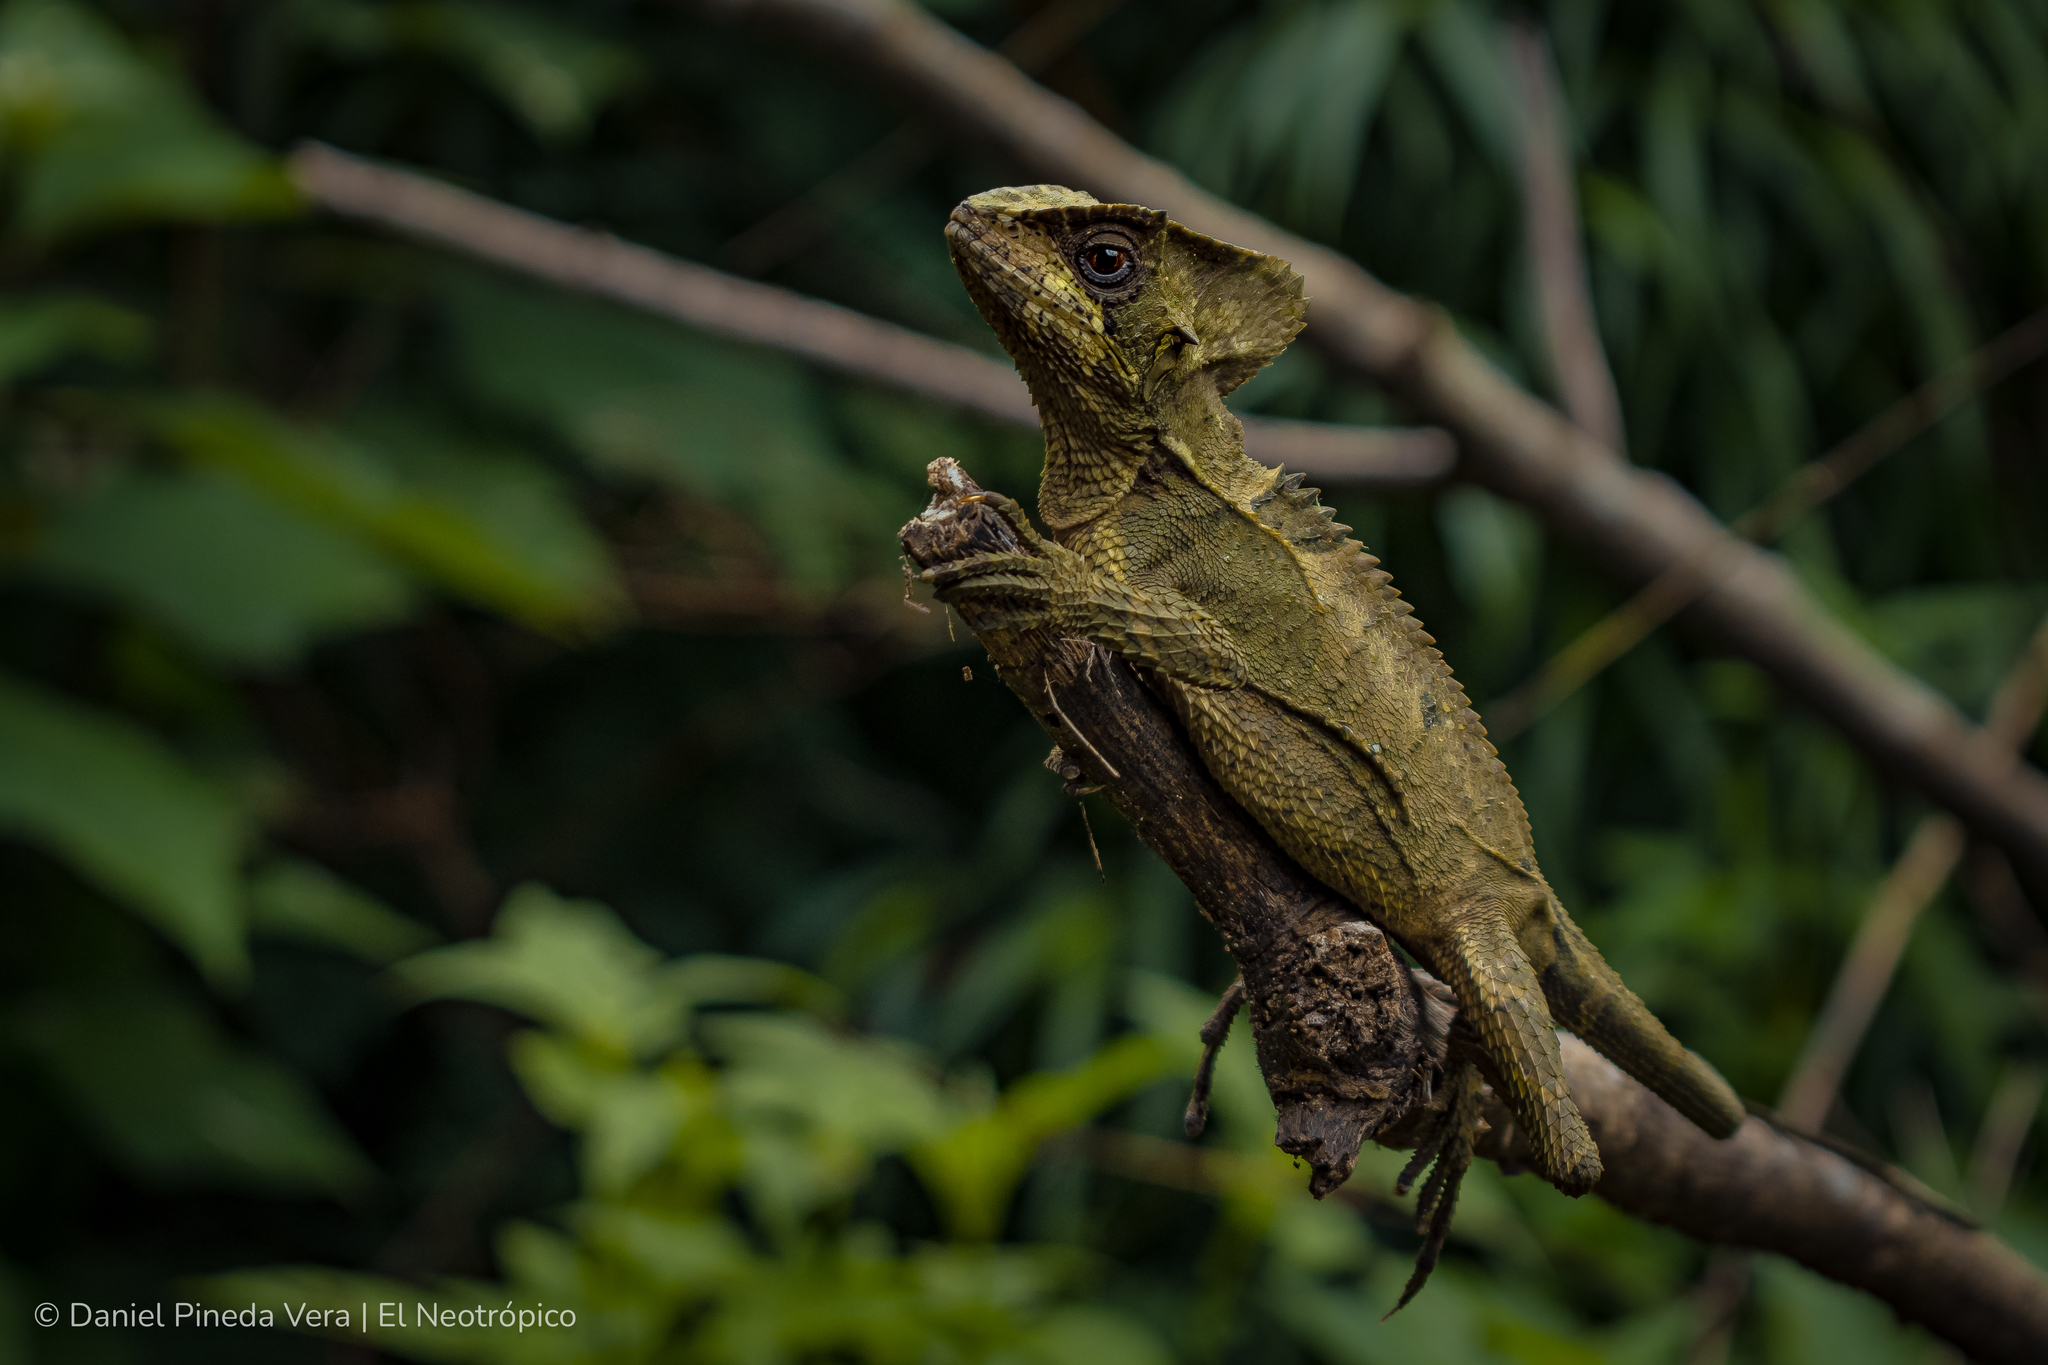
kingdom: Animalia
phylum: Chordata
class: Squamata
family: Corytophanidae
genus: Corytophanes
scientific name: Corytophanes hernandesii
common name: Hernandez’s helmeted basilisk
